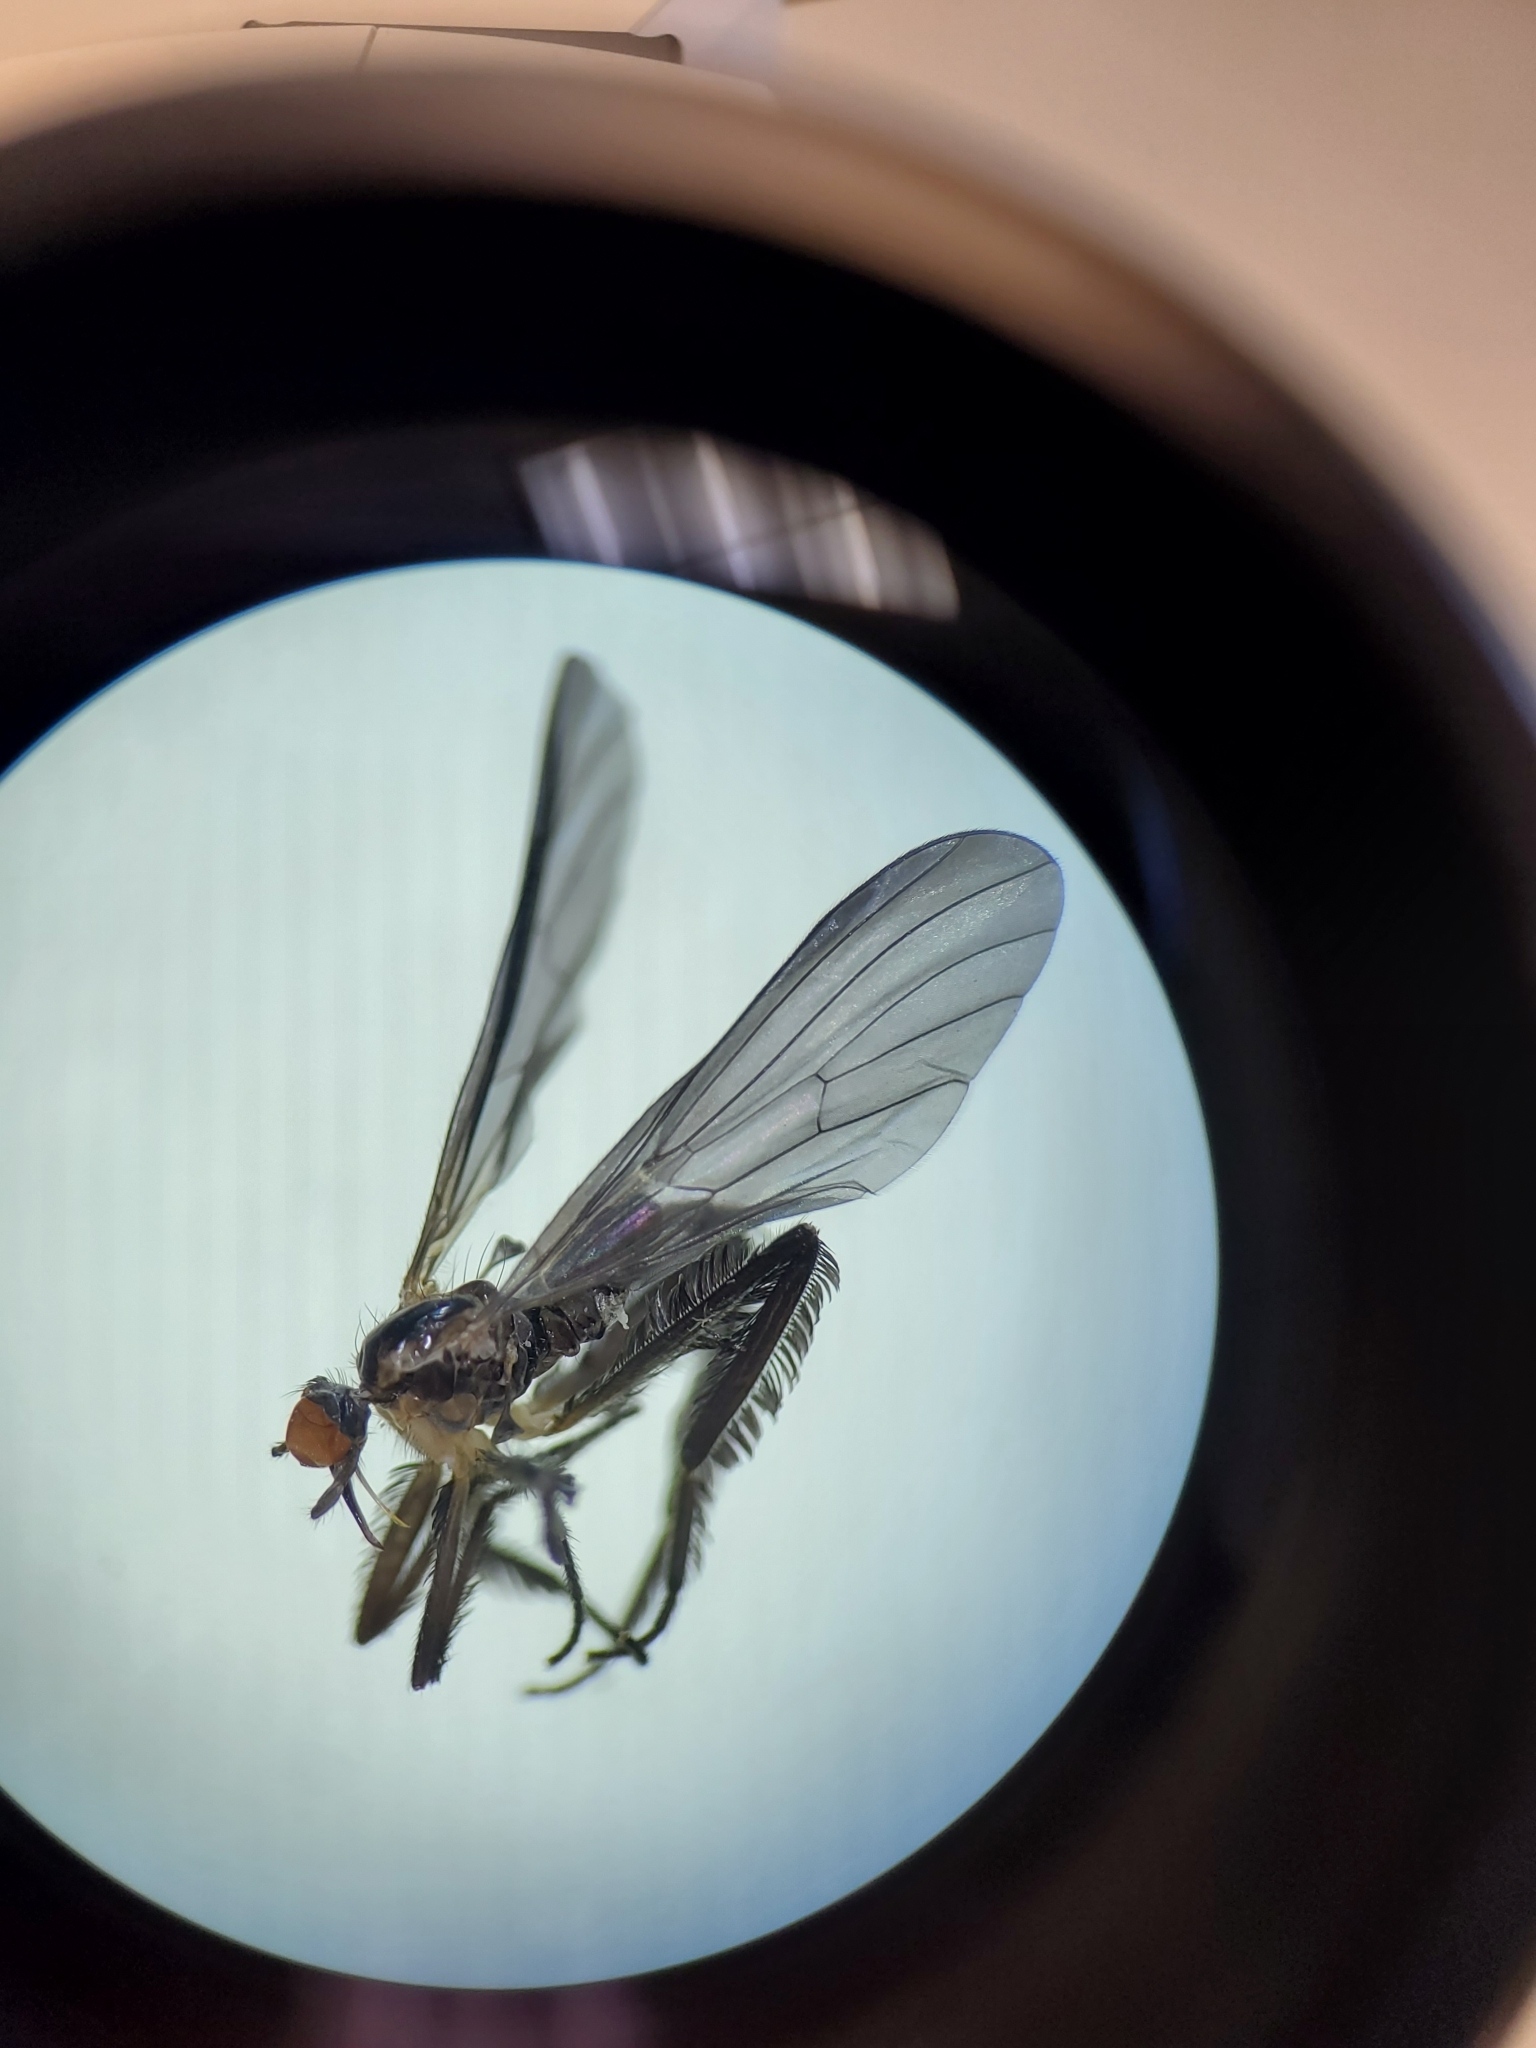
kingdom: Animalia
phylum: Arthropoda
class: Insecta
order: Diptera
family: Empididae
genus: Rhamphomyia
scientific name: Rhamphomyia longicauda
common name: Long-tailed dance fly
